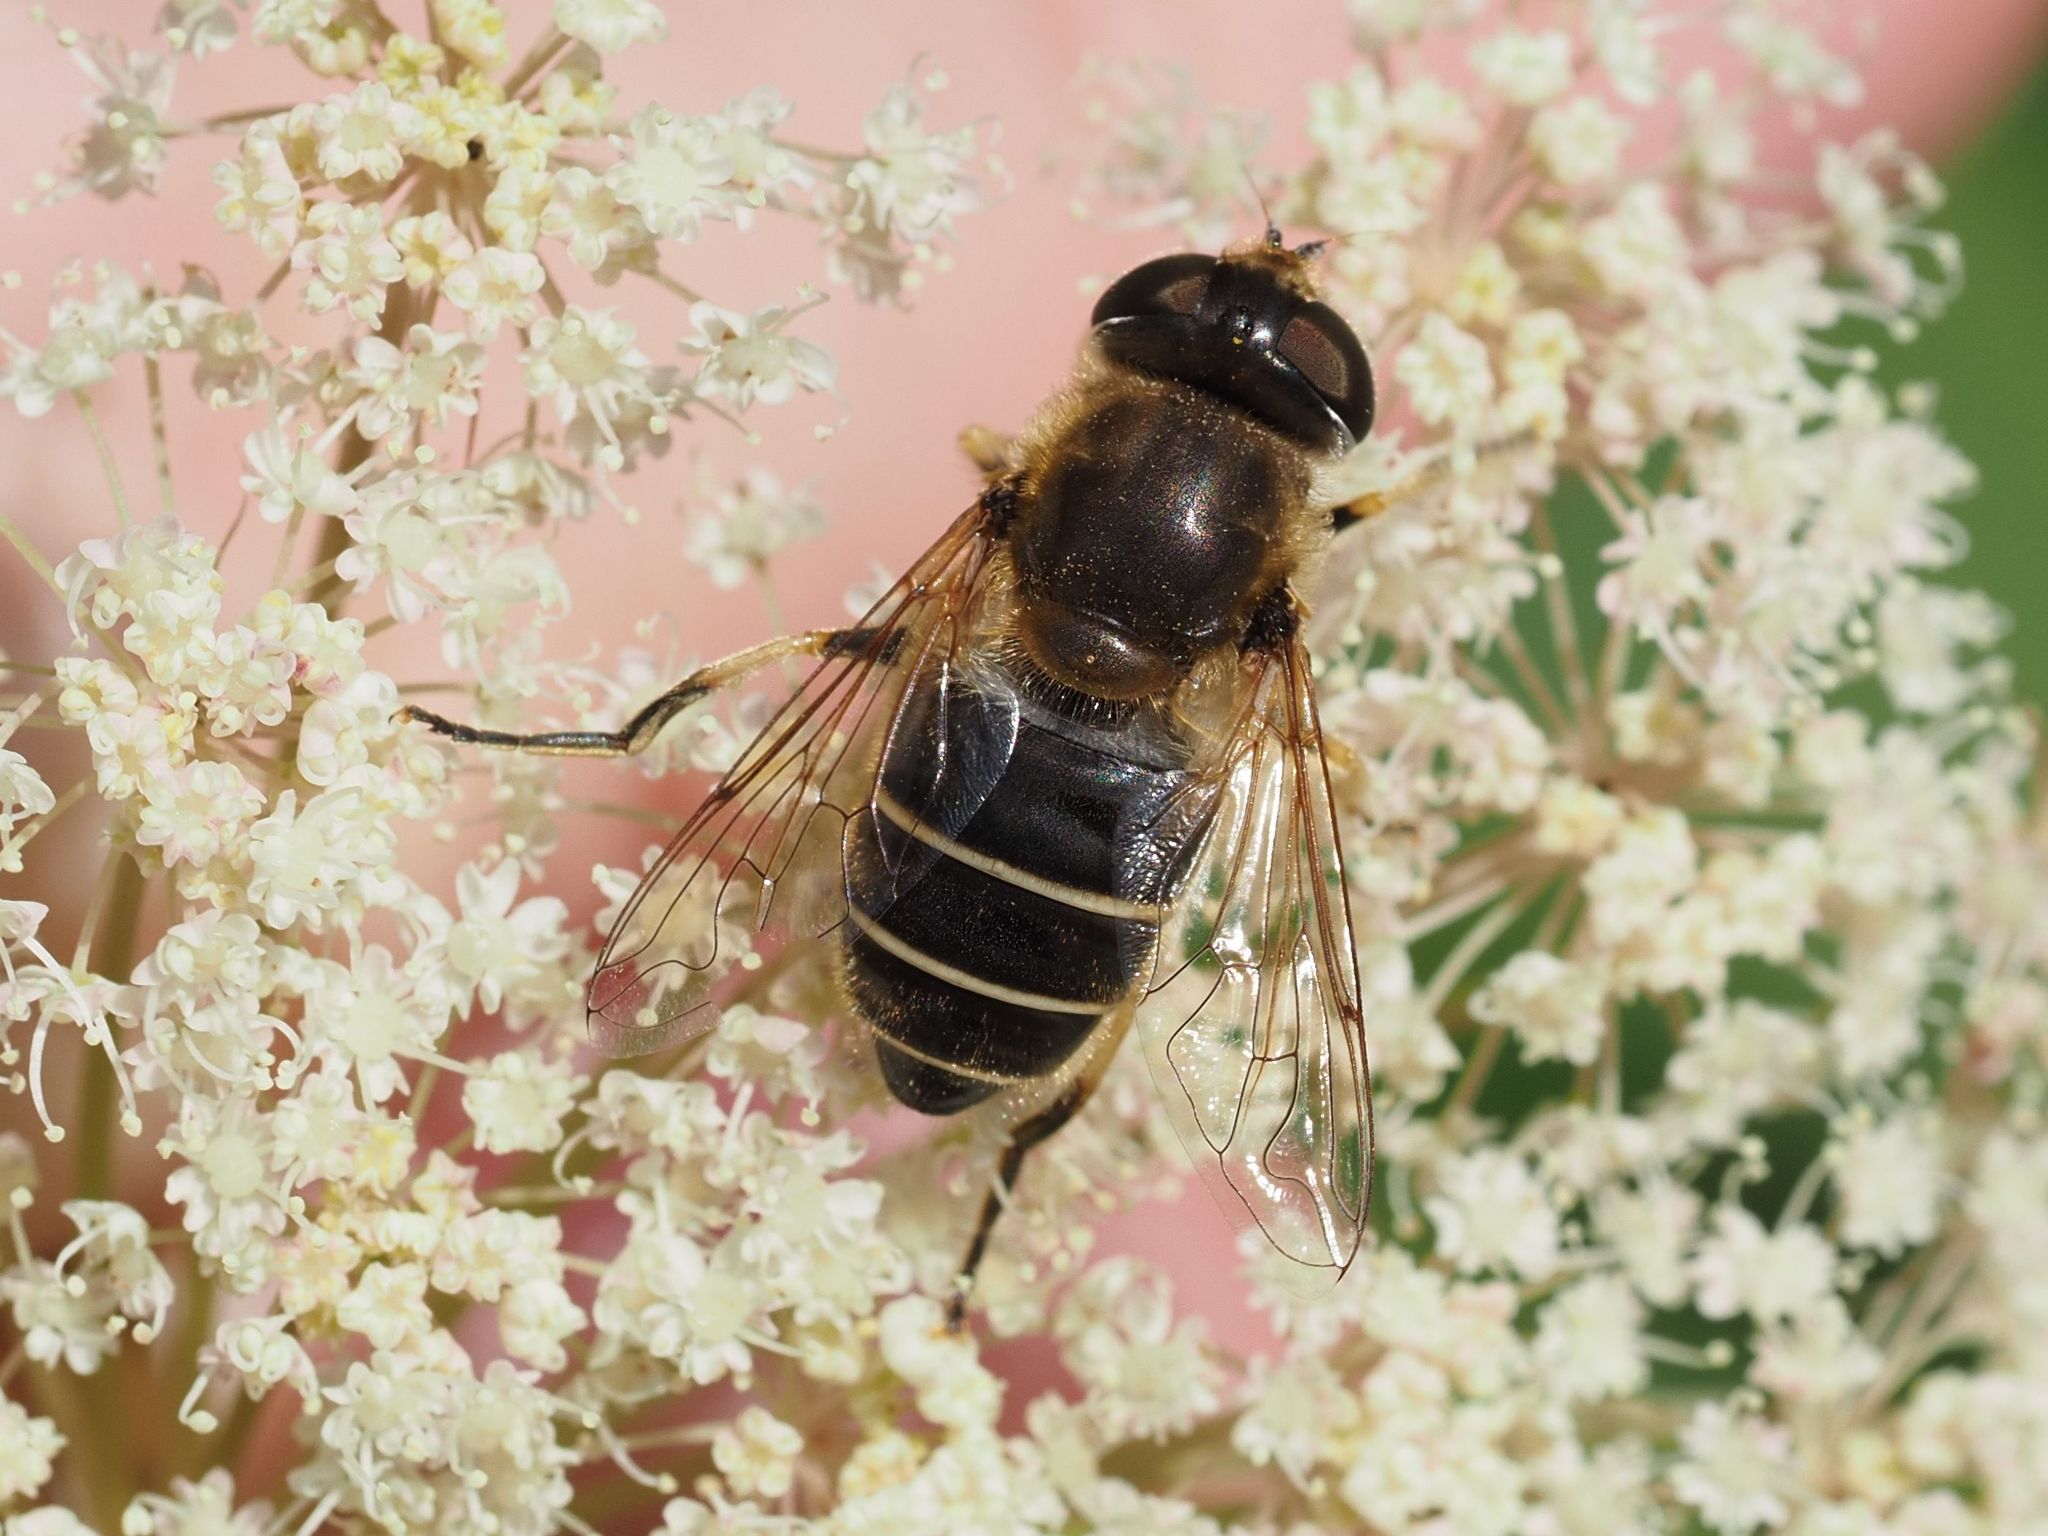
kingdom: Animalia
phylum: Arthropoda
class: Insecta
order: Diptera
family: Syrphidae
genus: Eristalis
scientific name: Eristalis nemorum
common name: Orange-spined drone fly
